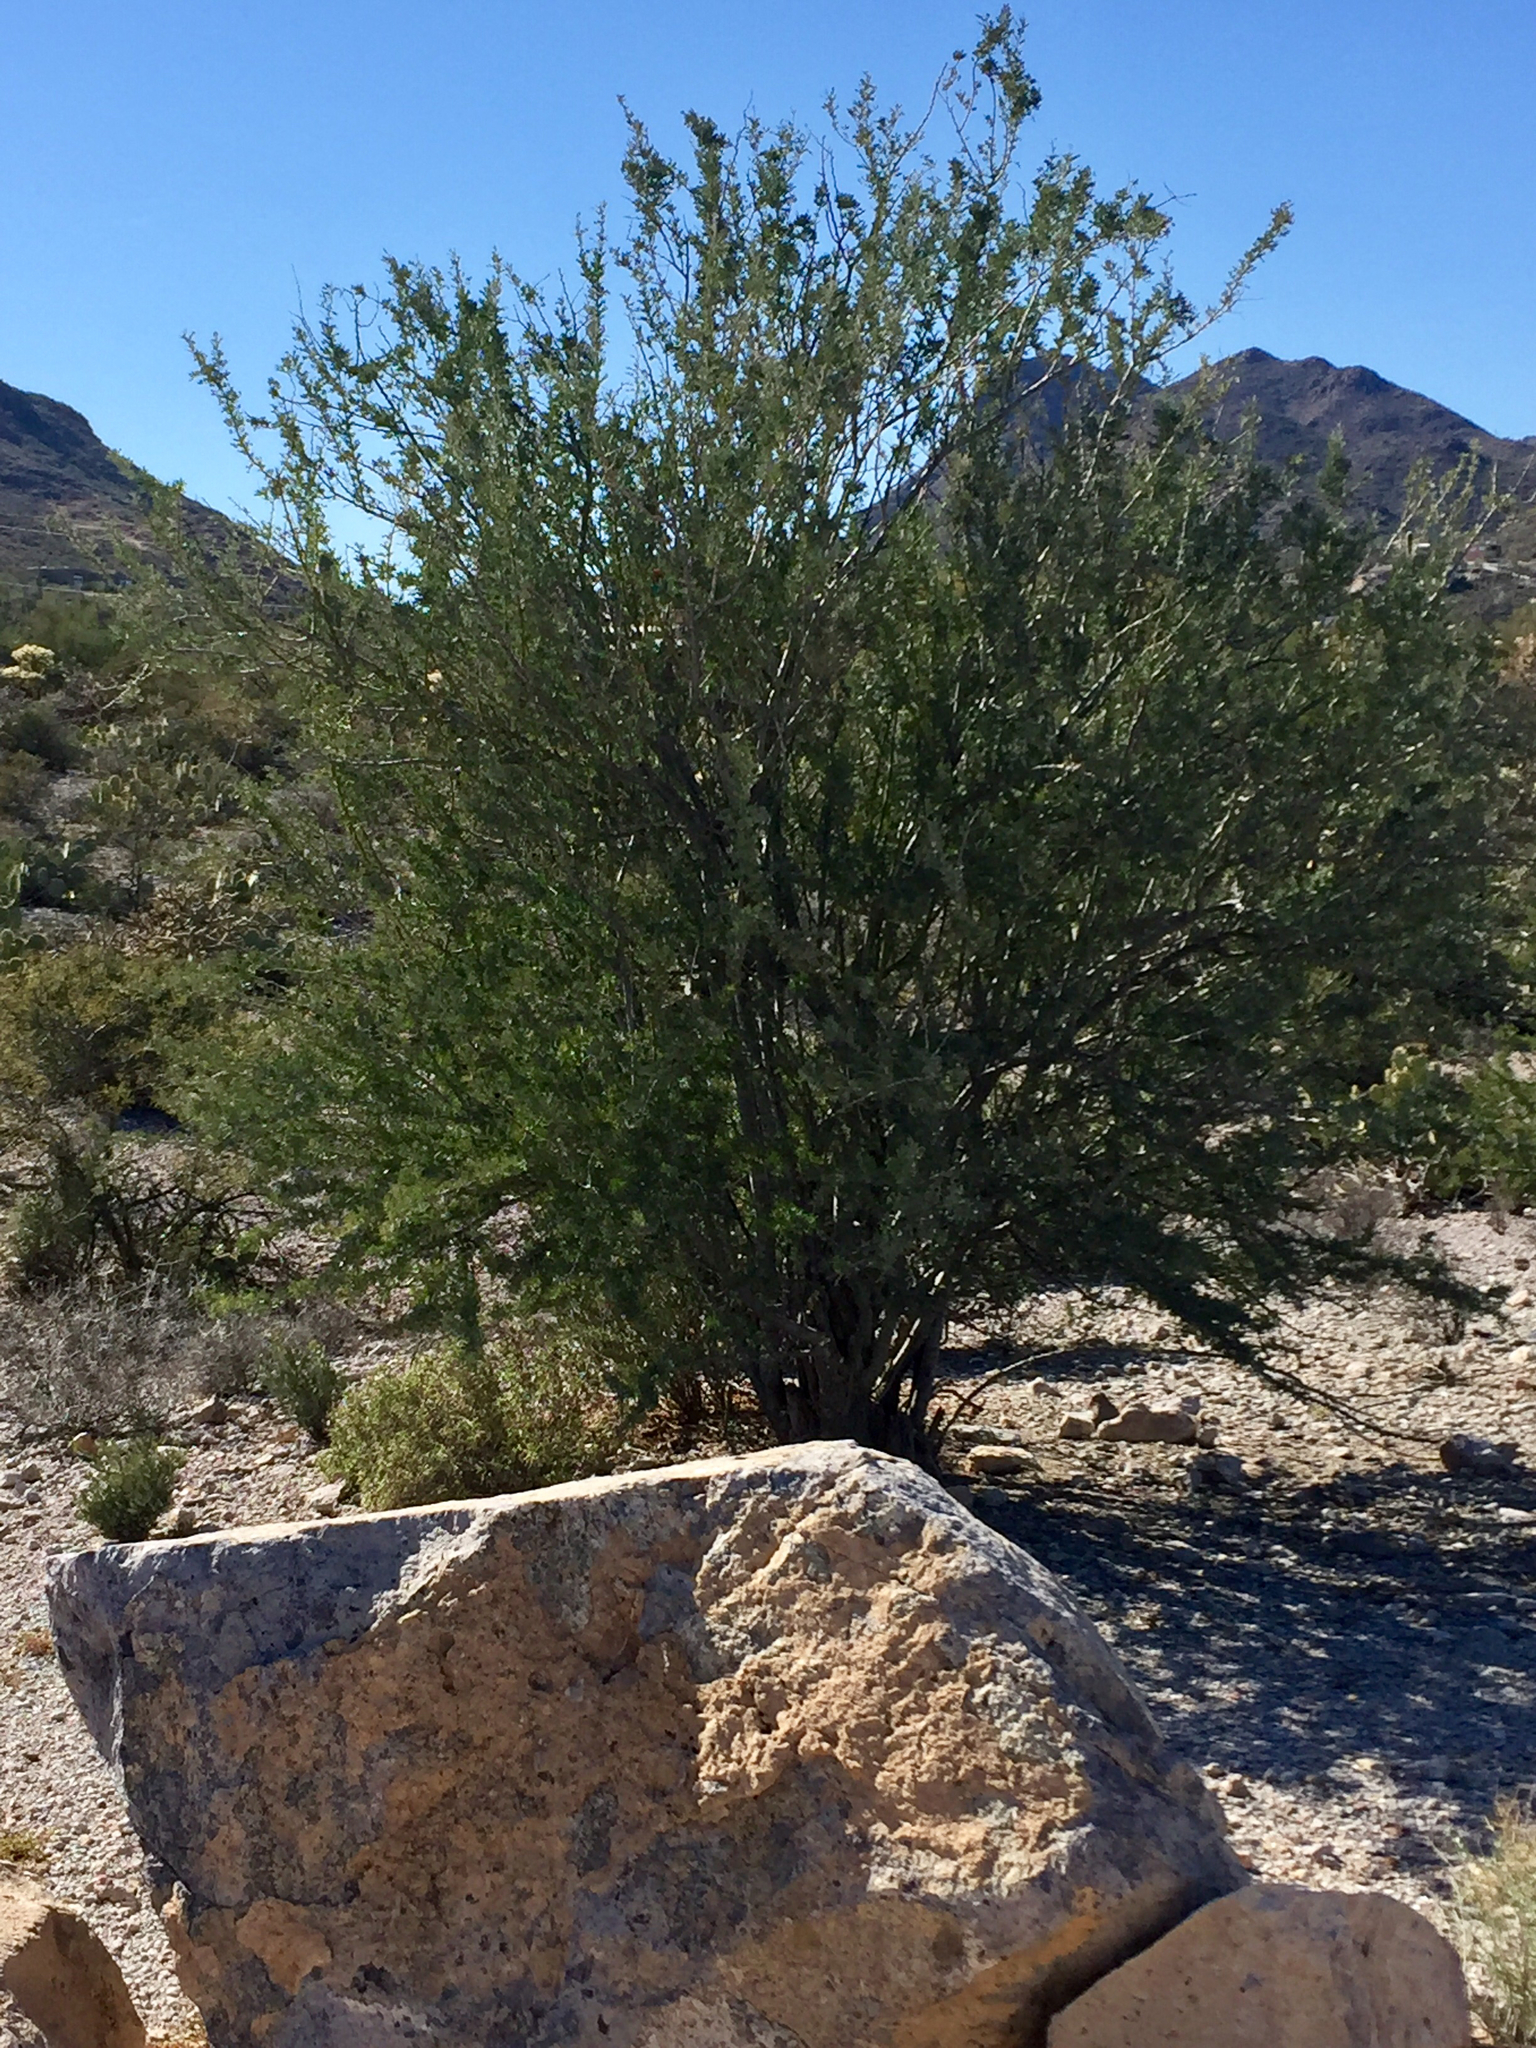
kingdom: Plantae
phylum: Tracheophyta
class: Magnoliopsida
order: Fabales
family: Fabaceae
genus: Olneya
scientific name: Olneya tesota
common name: Desert ironwood
